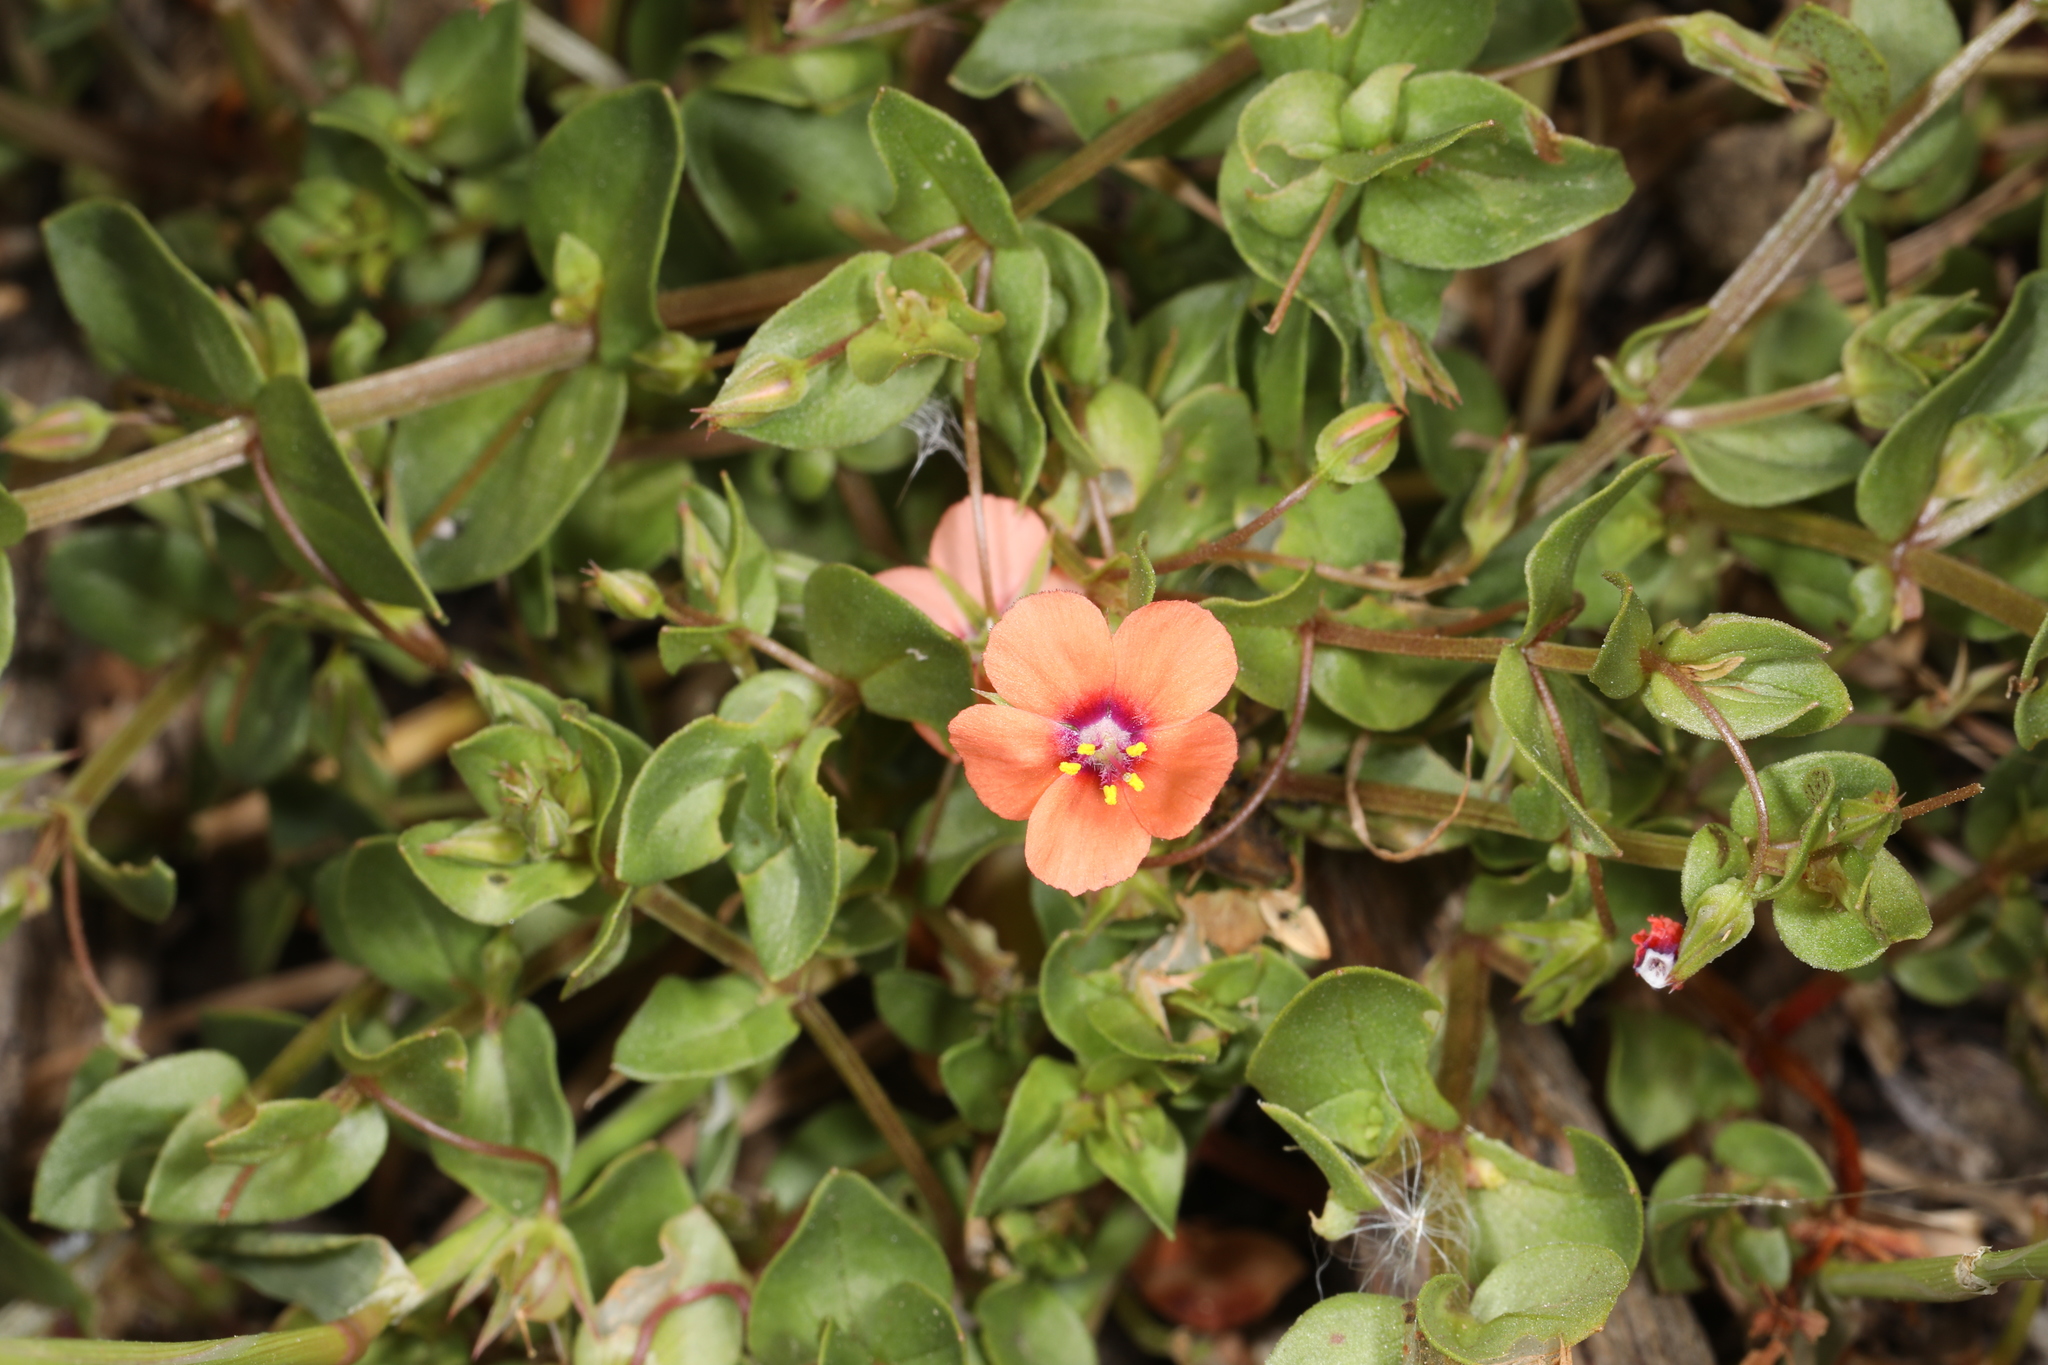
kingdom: Plantae
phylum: Tracheophyta
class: Magnoliopsida
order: Ericales
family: Primulaceae
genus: Lysimachia
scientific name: Lysimachia arvensis
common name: Scarlet pimpernel
